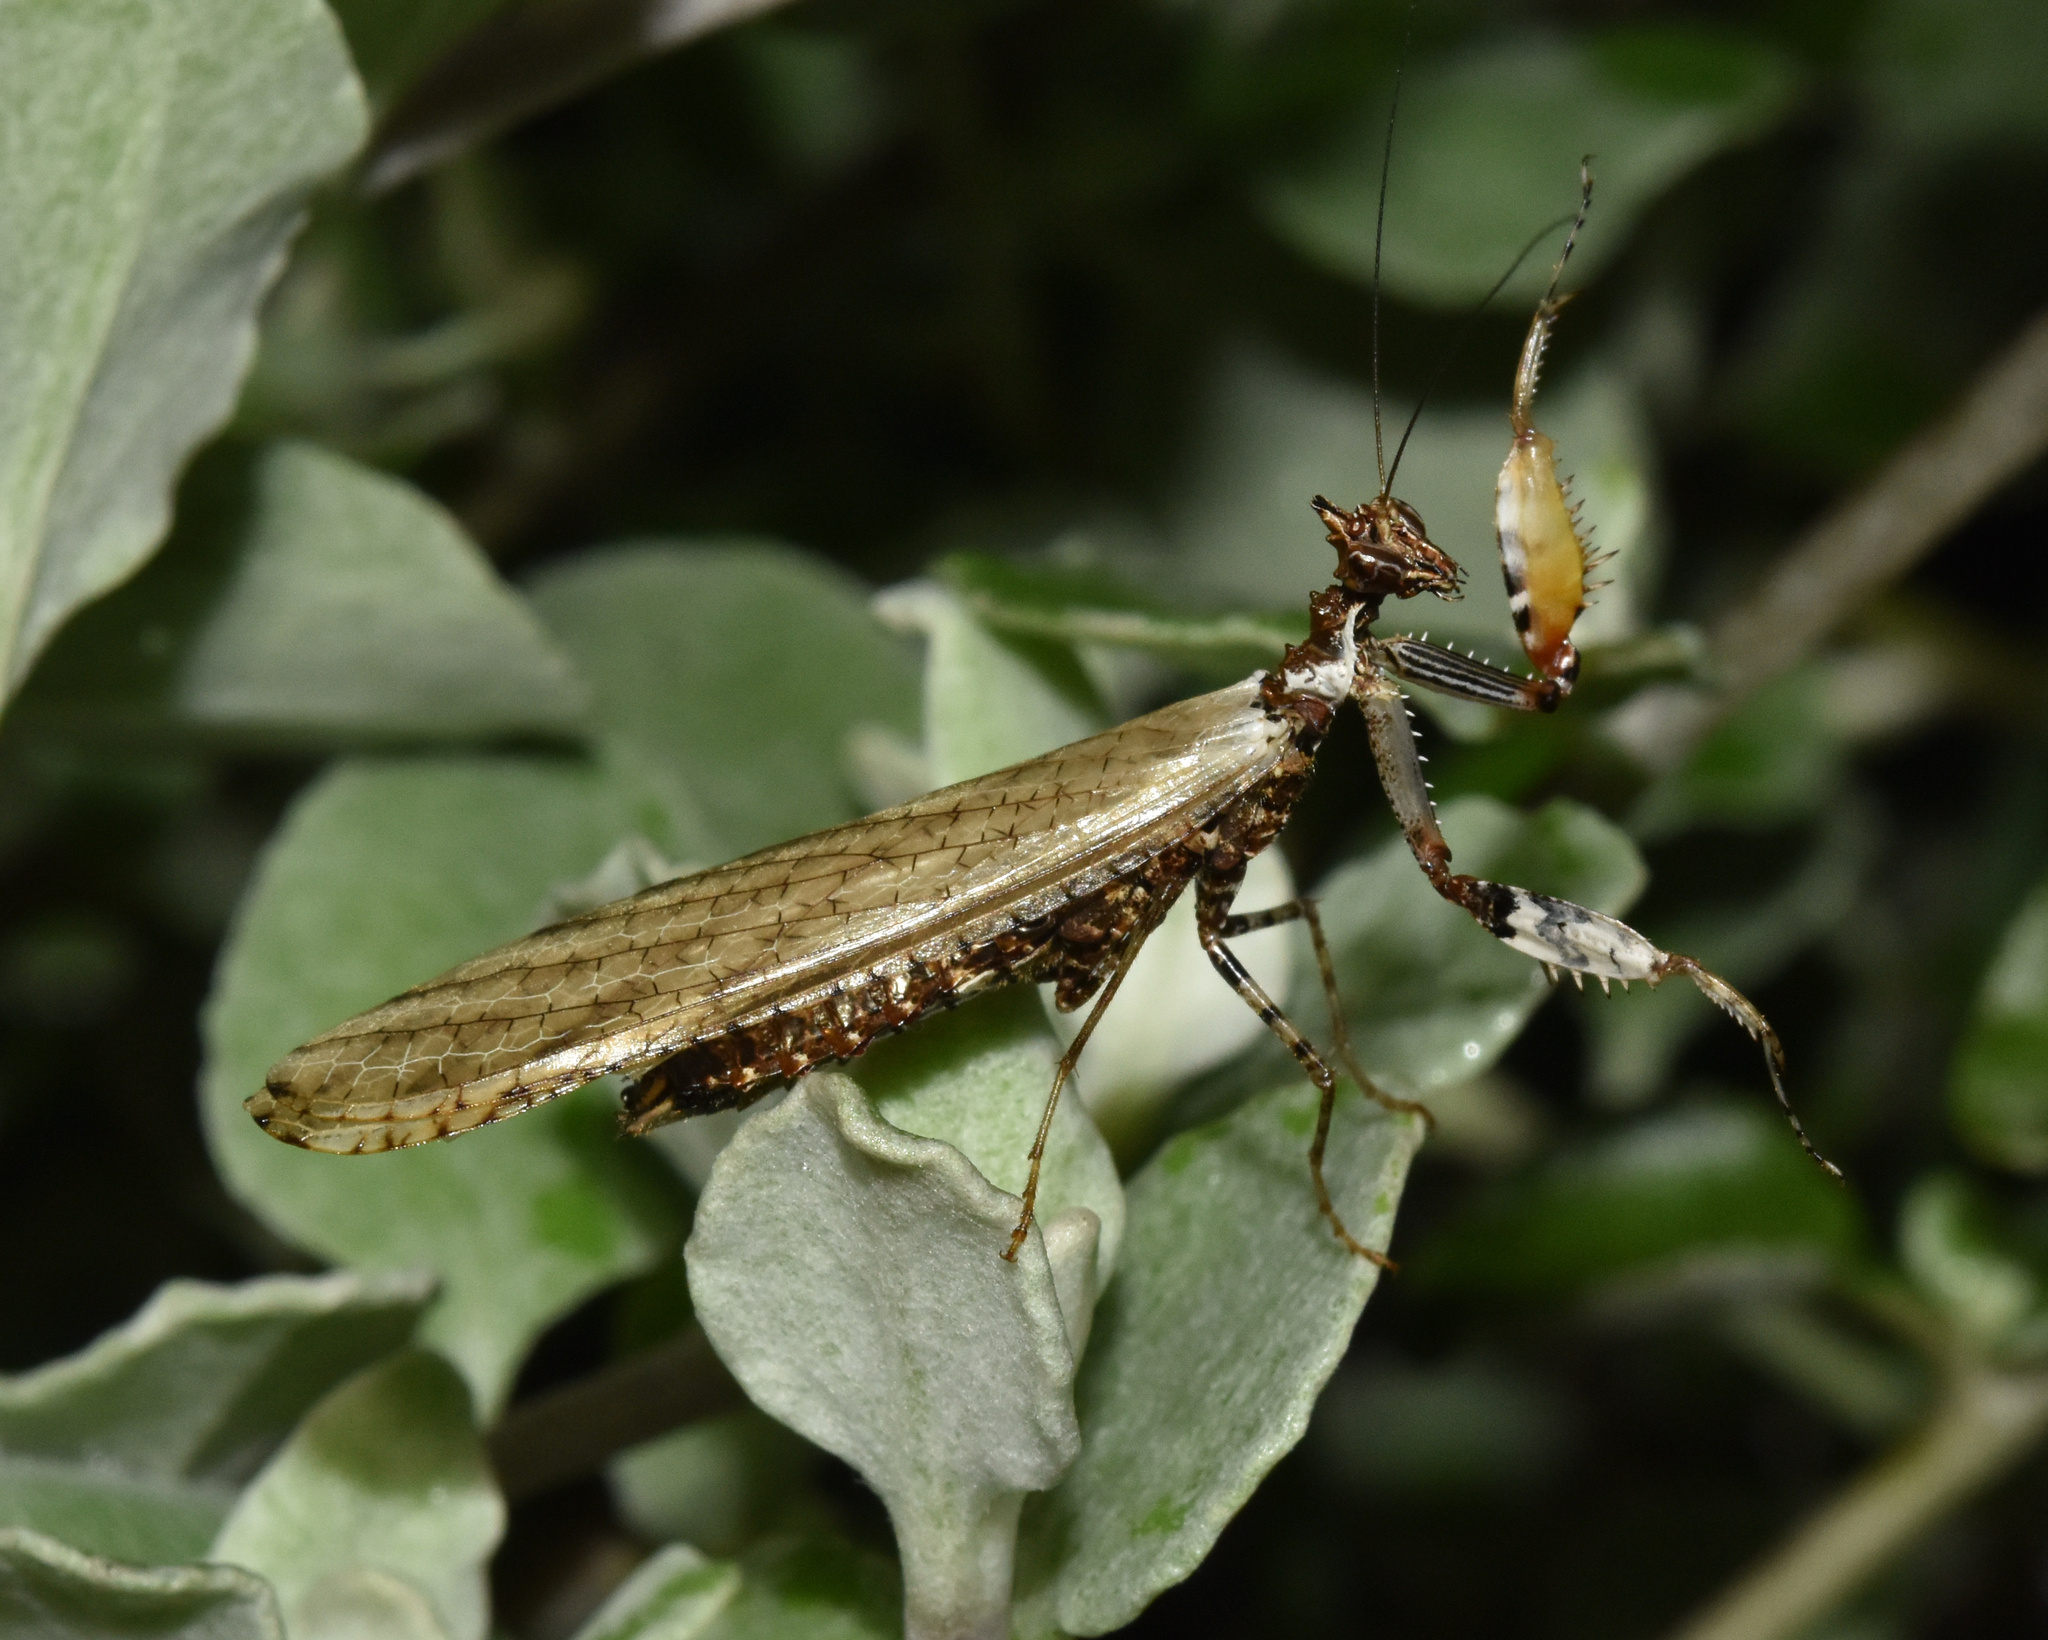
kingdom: Animalia
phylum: Arthropoda
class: Insecta
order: Mantodea
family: Hymenopodidae
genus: Oxypilus
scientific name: Oxypilus capensis
